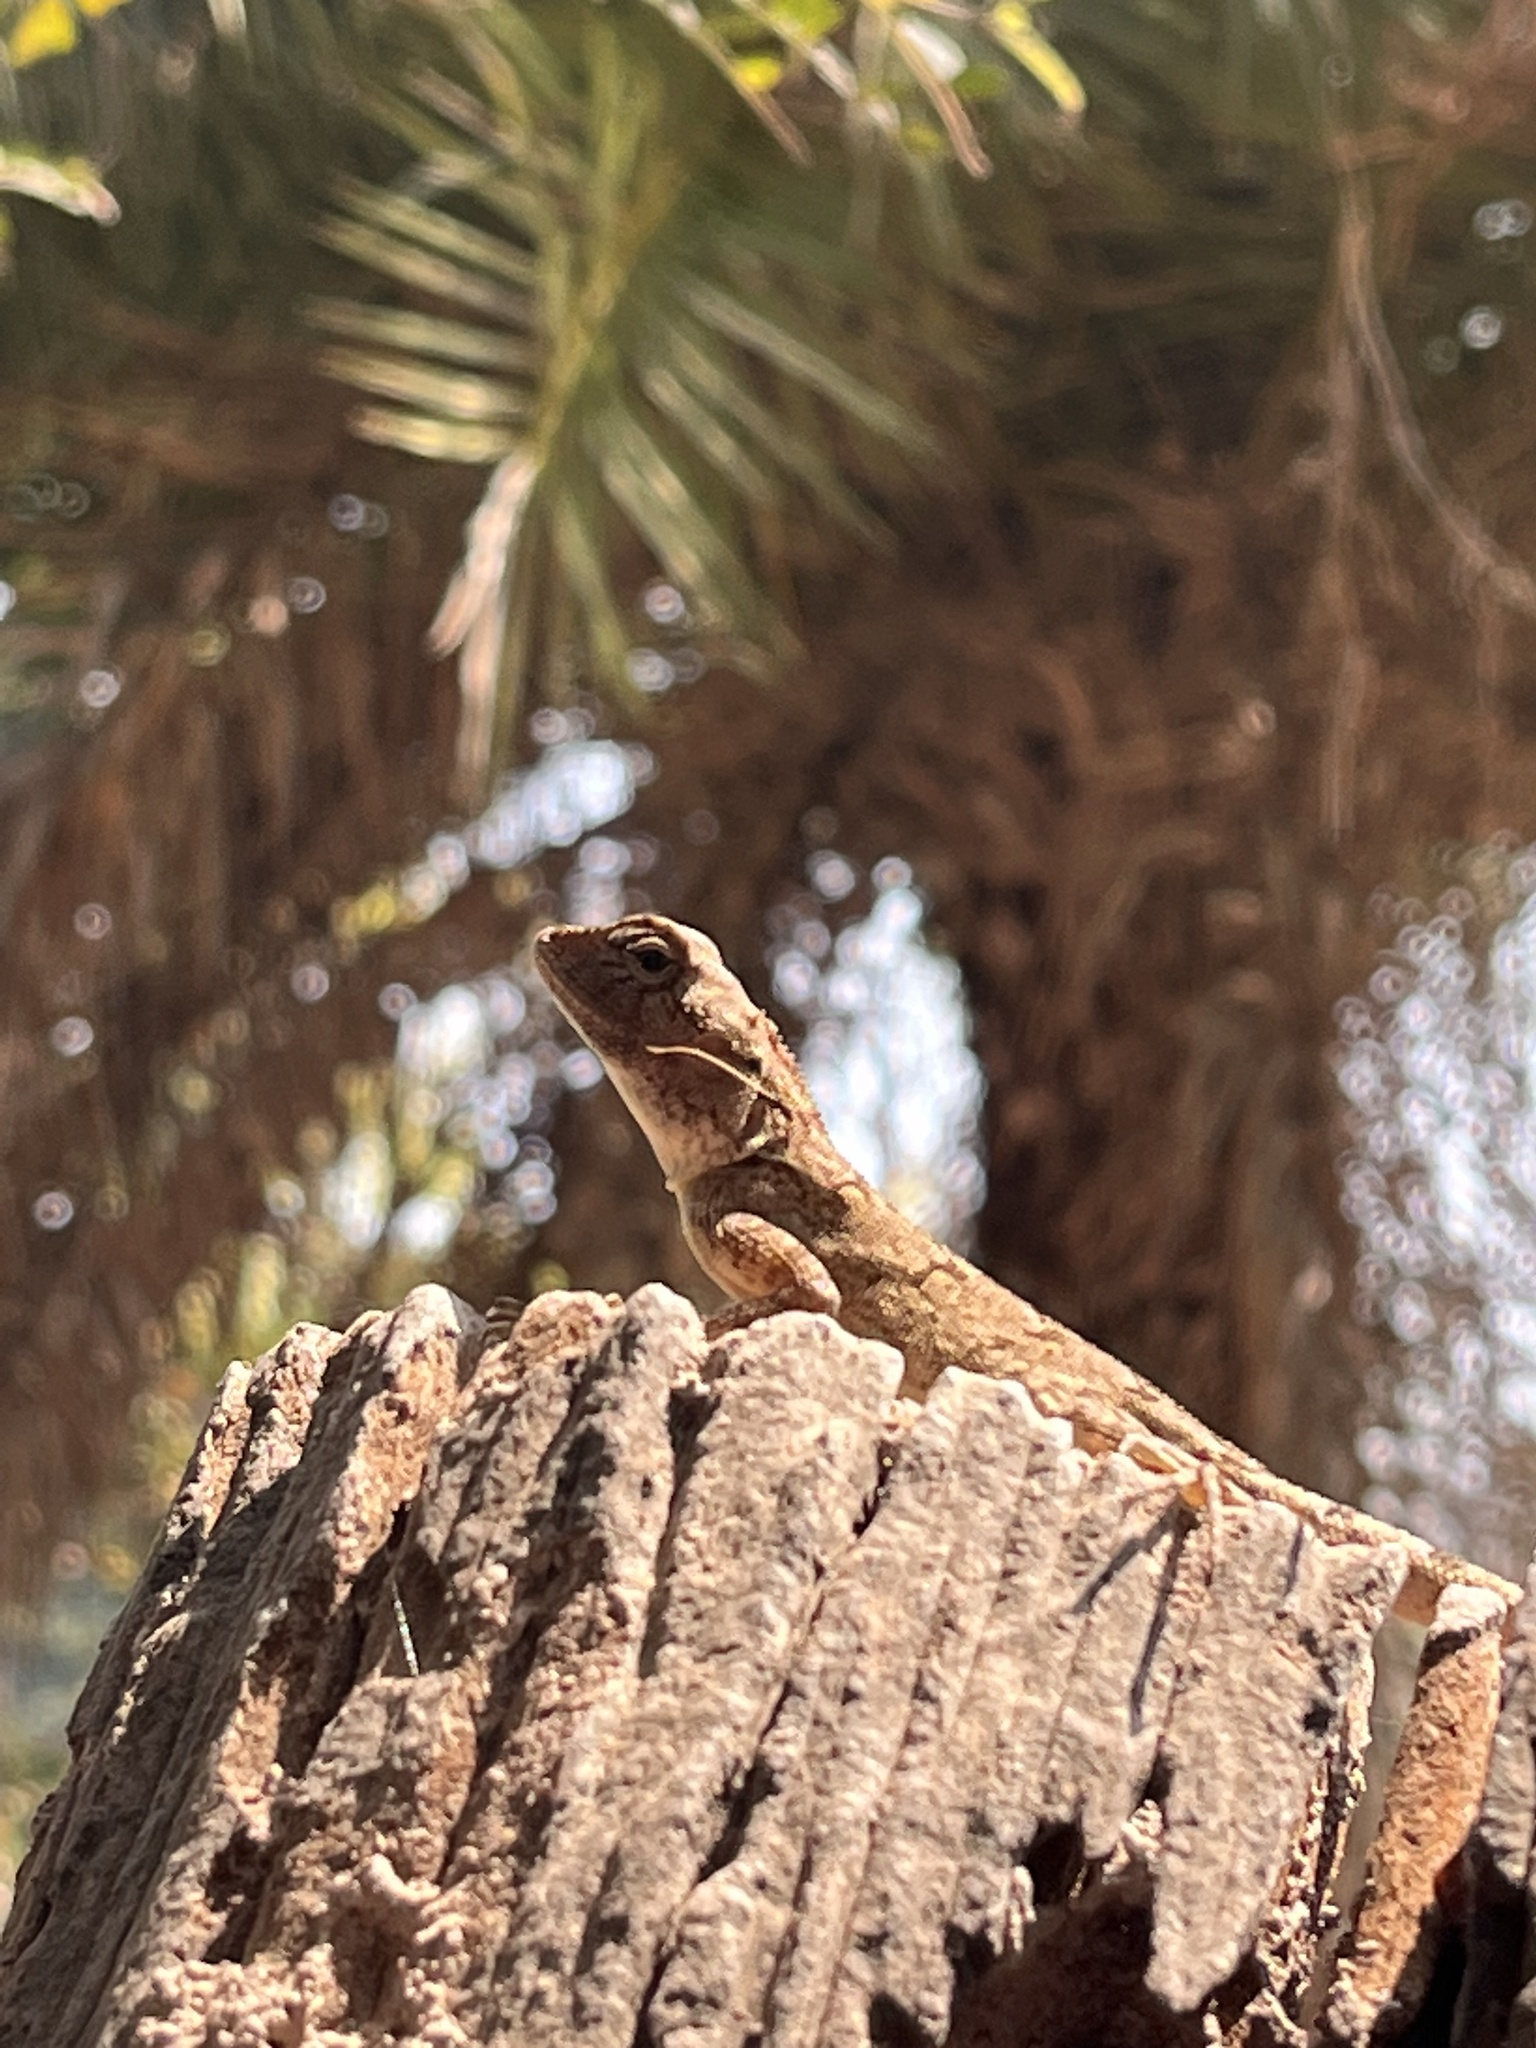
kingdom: Animalia
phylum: Chordata
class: Squamata
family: Agamidae
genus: Calotes
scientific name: Calotes versicolor
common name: Oriental garden lizard
